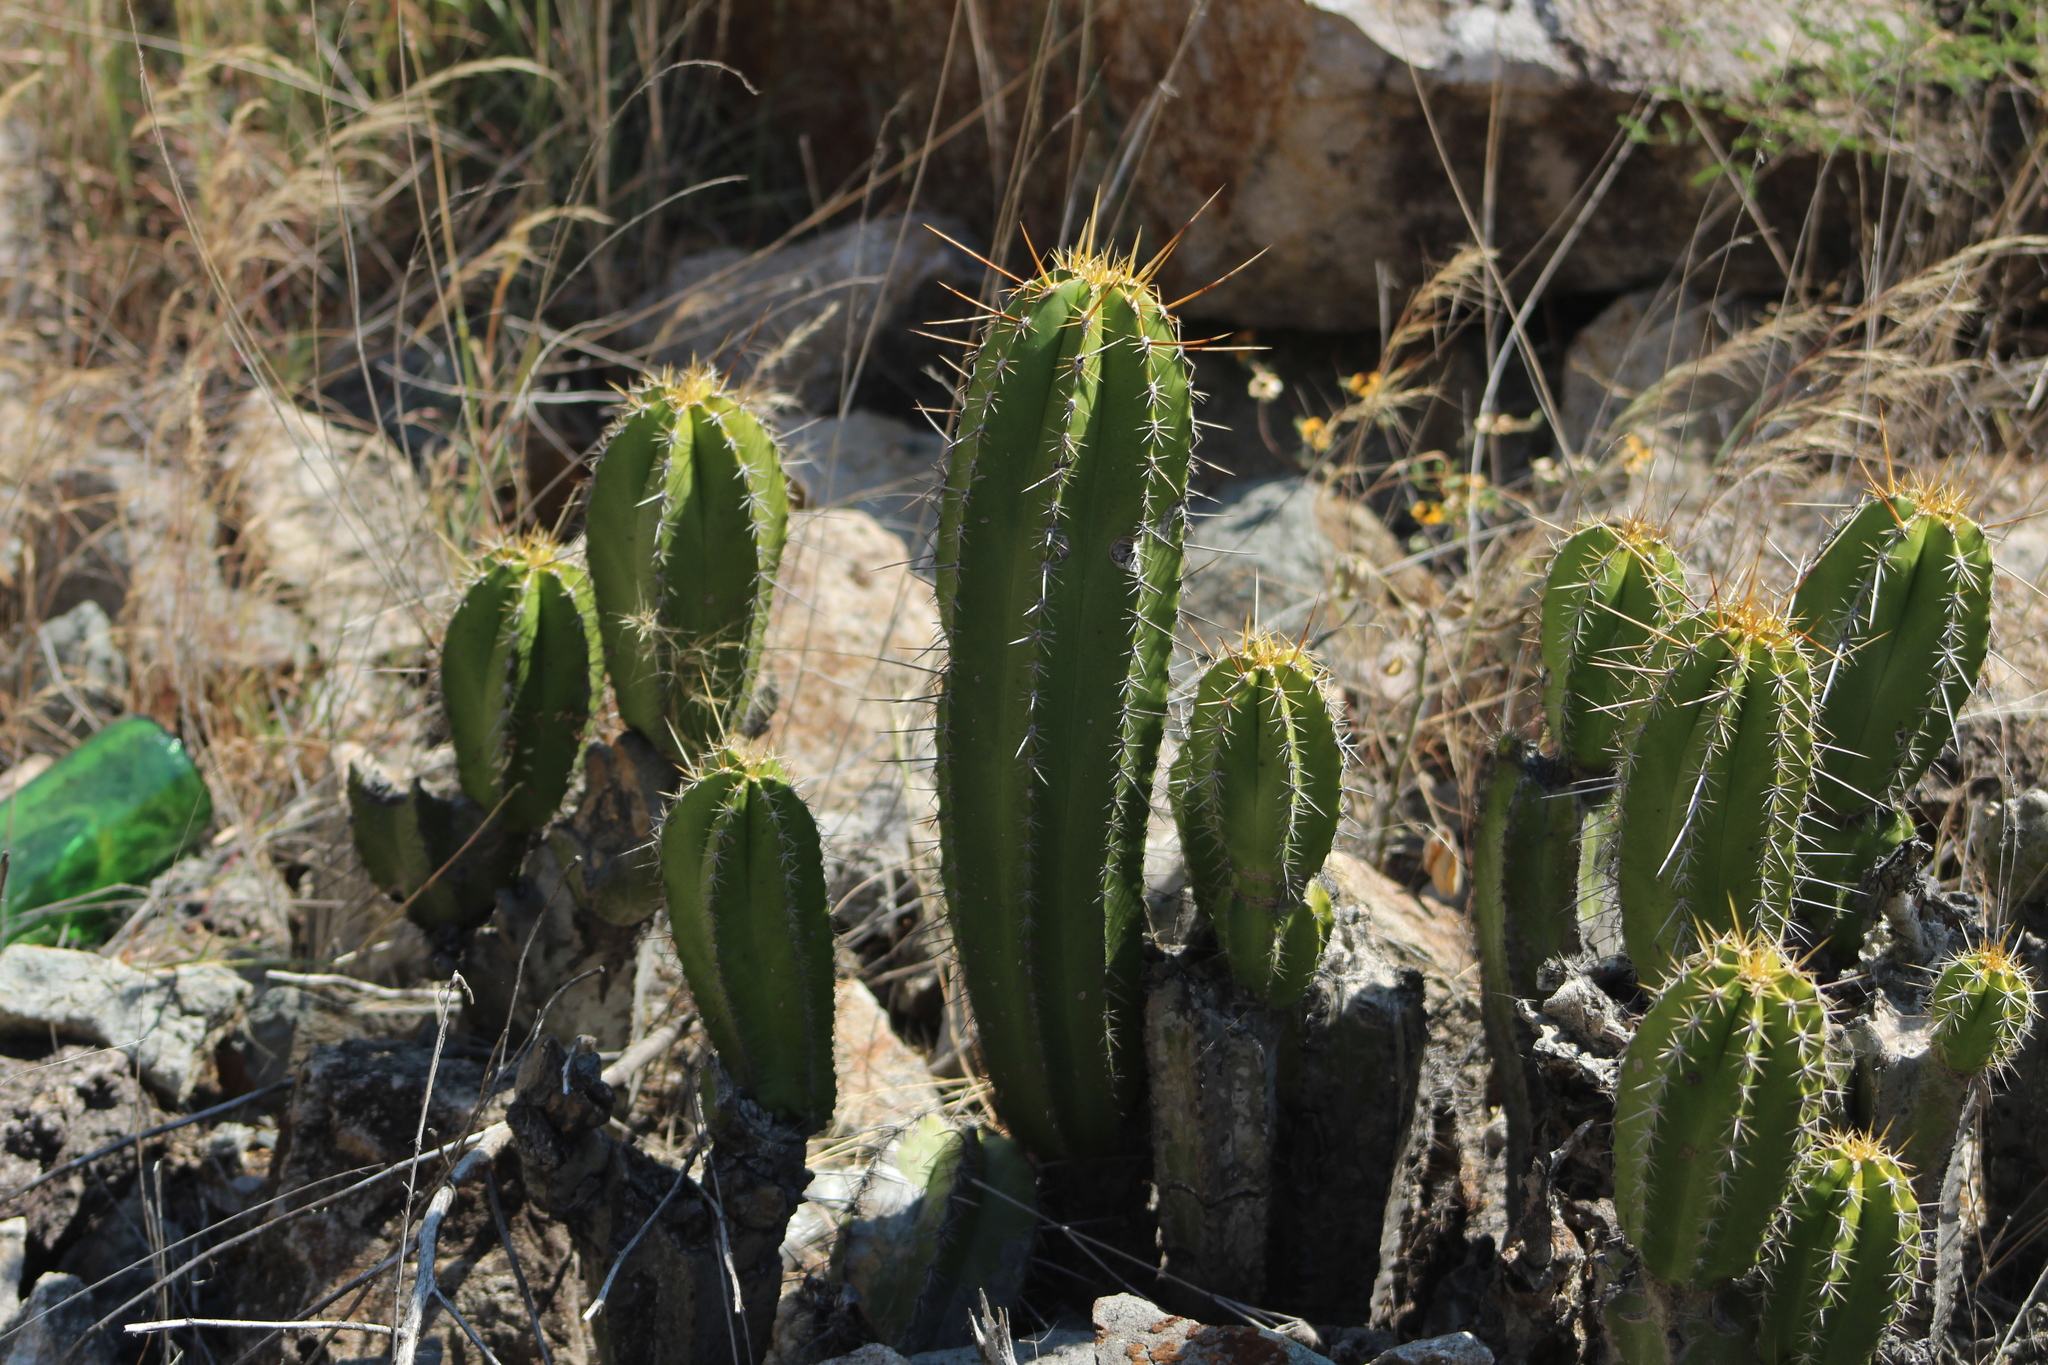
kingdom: Plantae
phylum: Tracheophyta
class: Magnoliopsida
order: Caryophyllales
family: Cactaceae
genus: Myrtillocactus
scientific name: Myrtillocactus chiotilla
